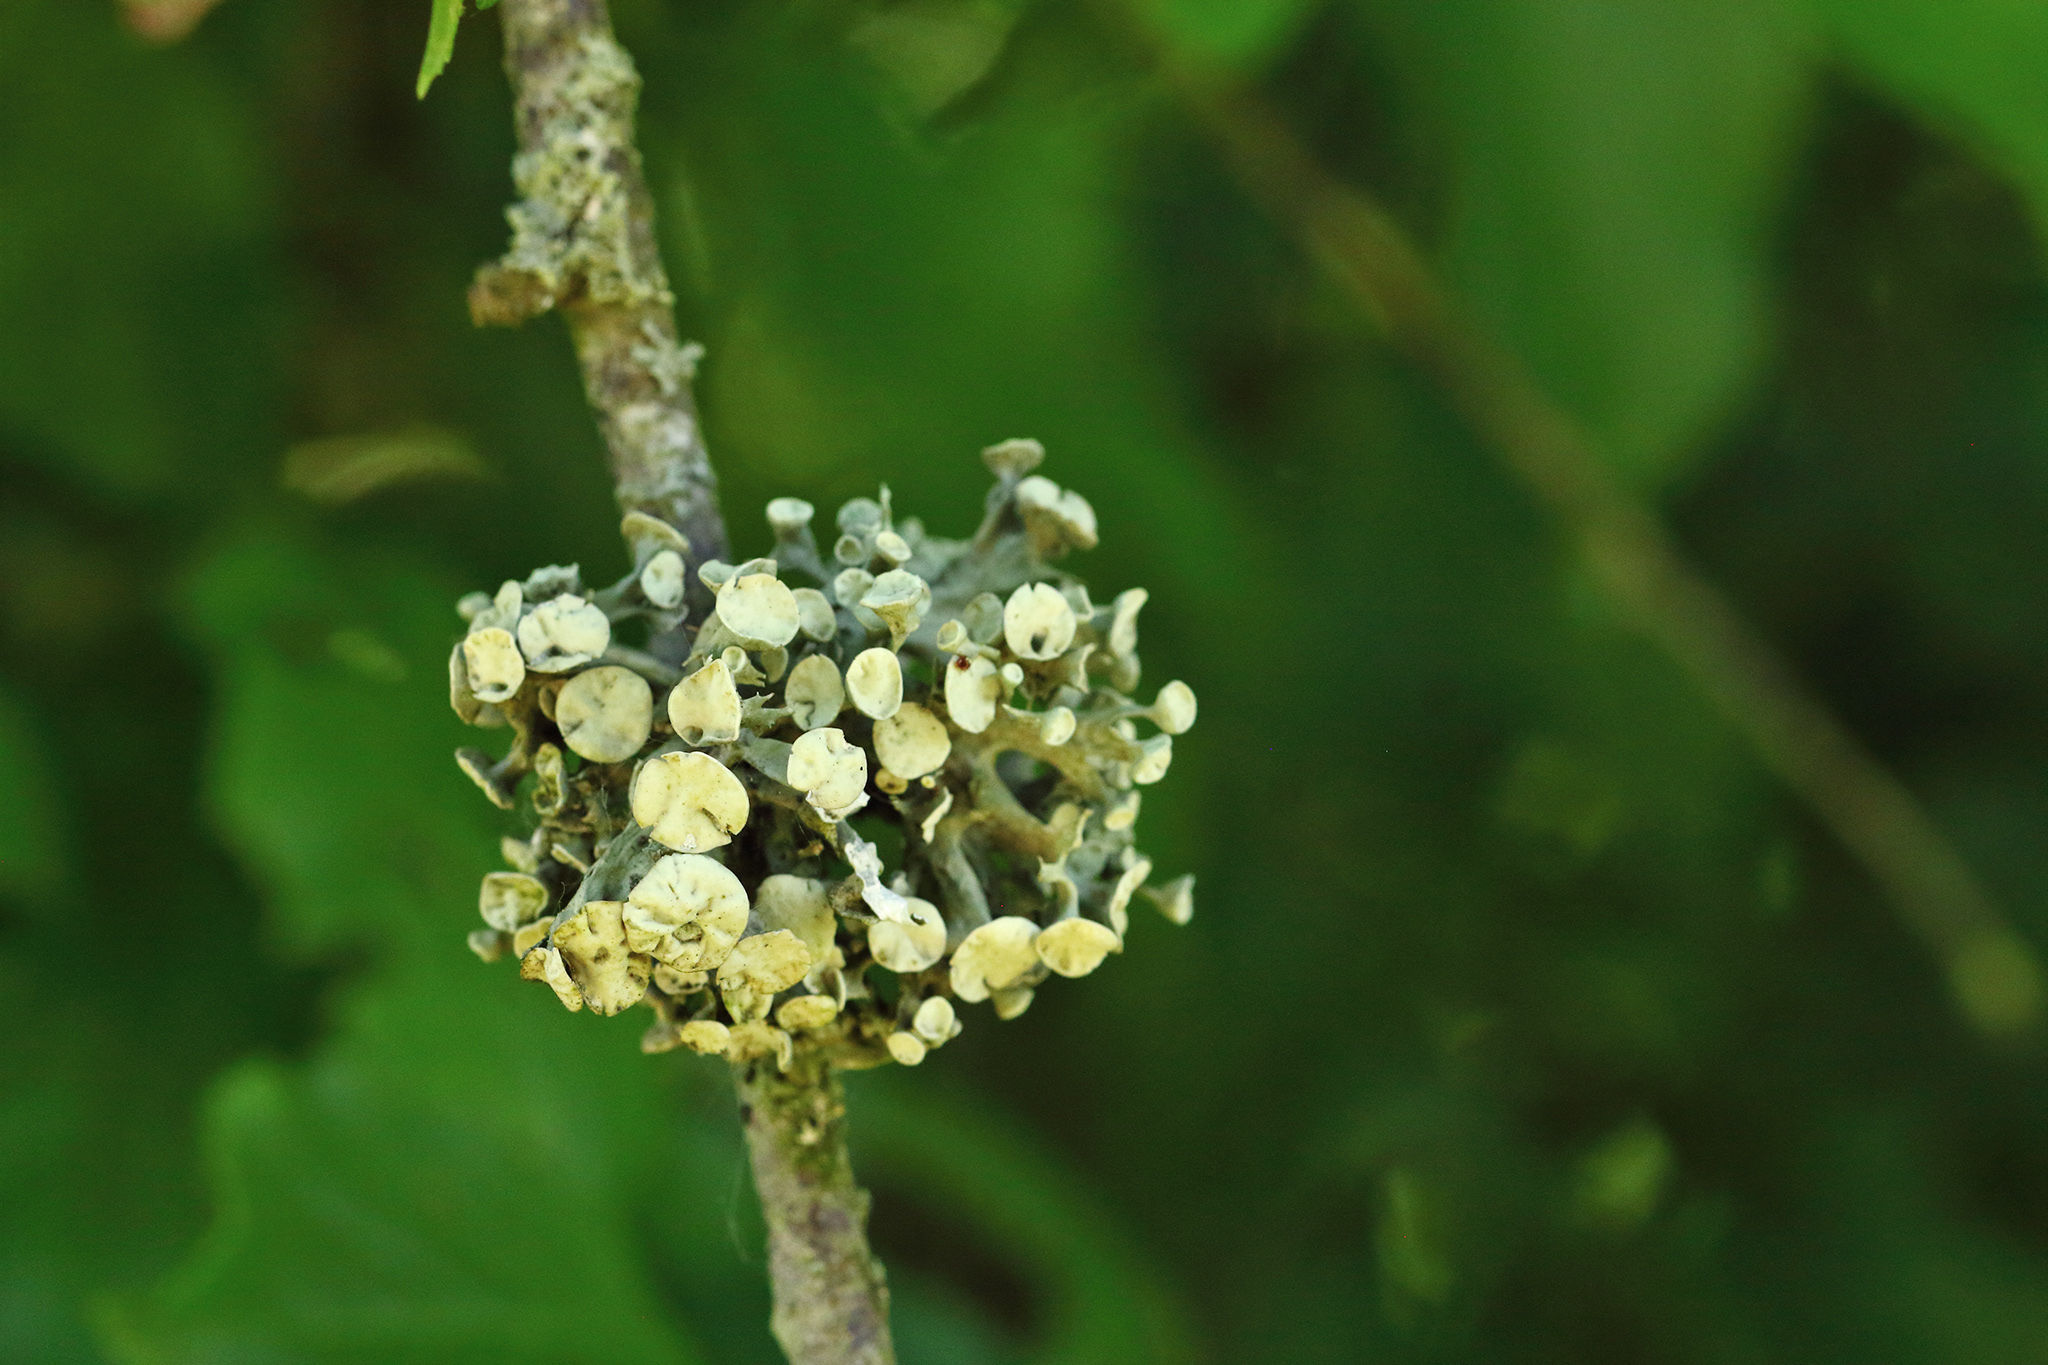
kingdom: Fungi
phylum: Ascomycota
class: Lecanoromycetes
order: Lecanorales
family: Ramalinaceae
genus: Ramalina
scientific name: Ramalina fastigiata
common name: Dotted ribbon lichen
